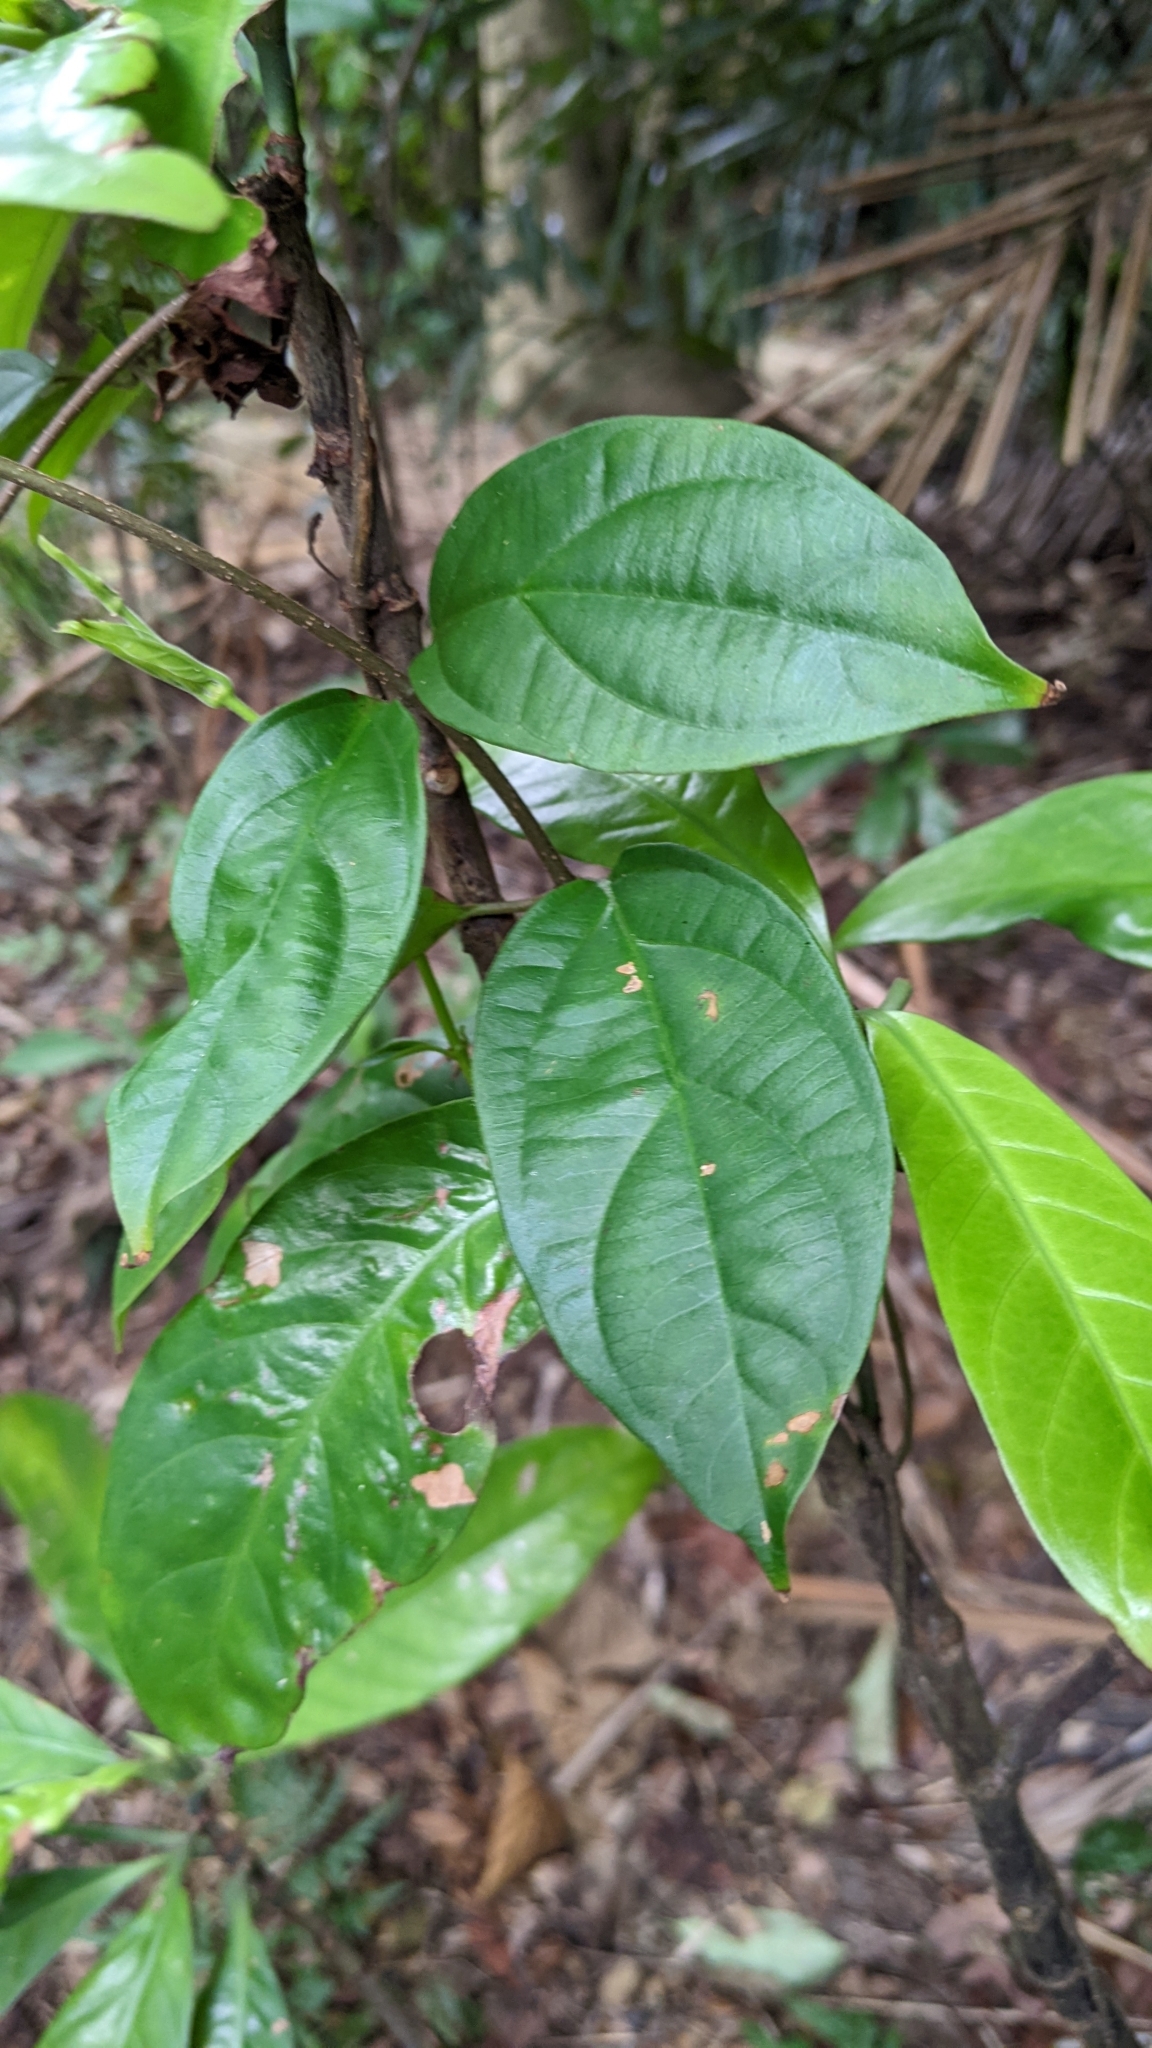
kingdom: Plantae
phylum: Tracheophyta
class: Magnoliopsida
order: Gentianales
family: Apocynaceae
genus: Urceola
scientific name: Urceola micrantha
